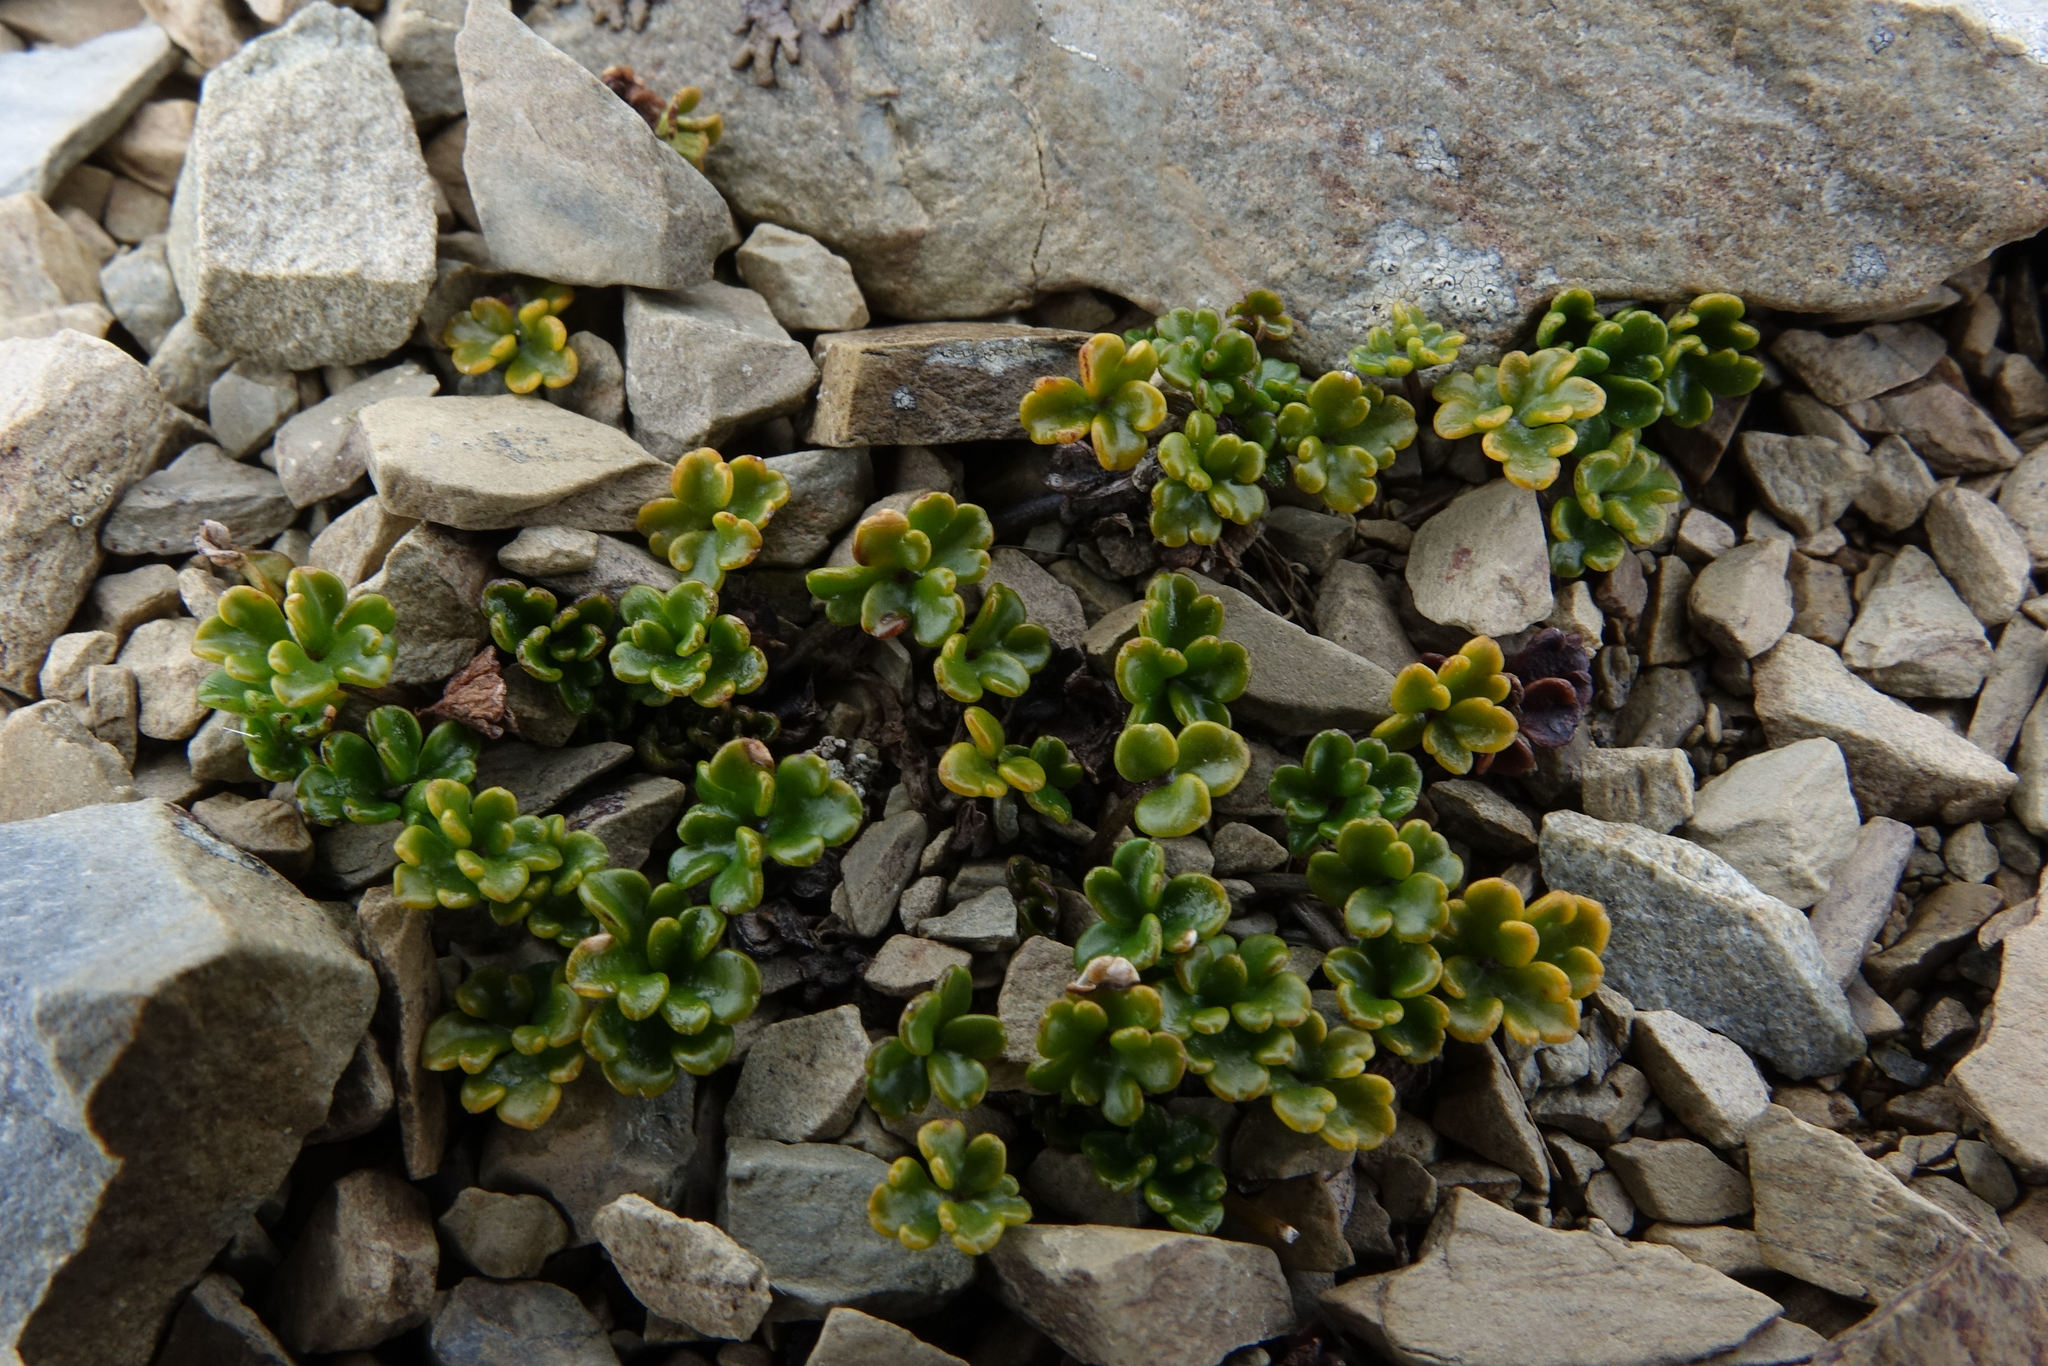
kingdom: Plantae
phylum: Tracheophyta
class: Magnoliopsida
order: Apiales
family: Apiaceae
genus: Azorella
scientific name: Azorella hydrocotyloides
